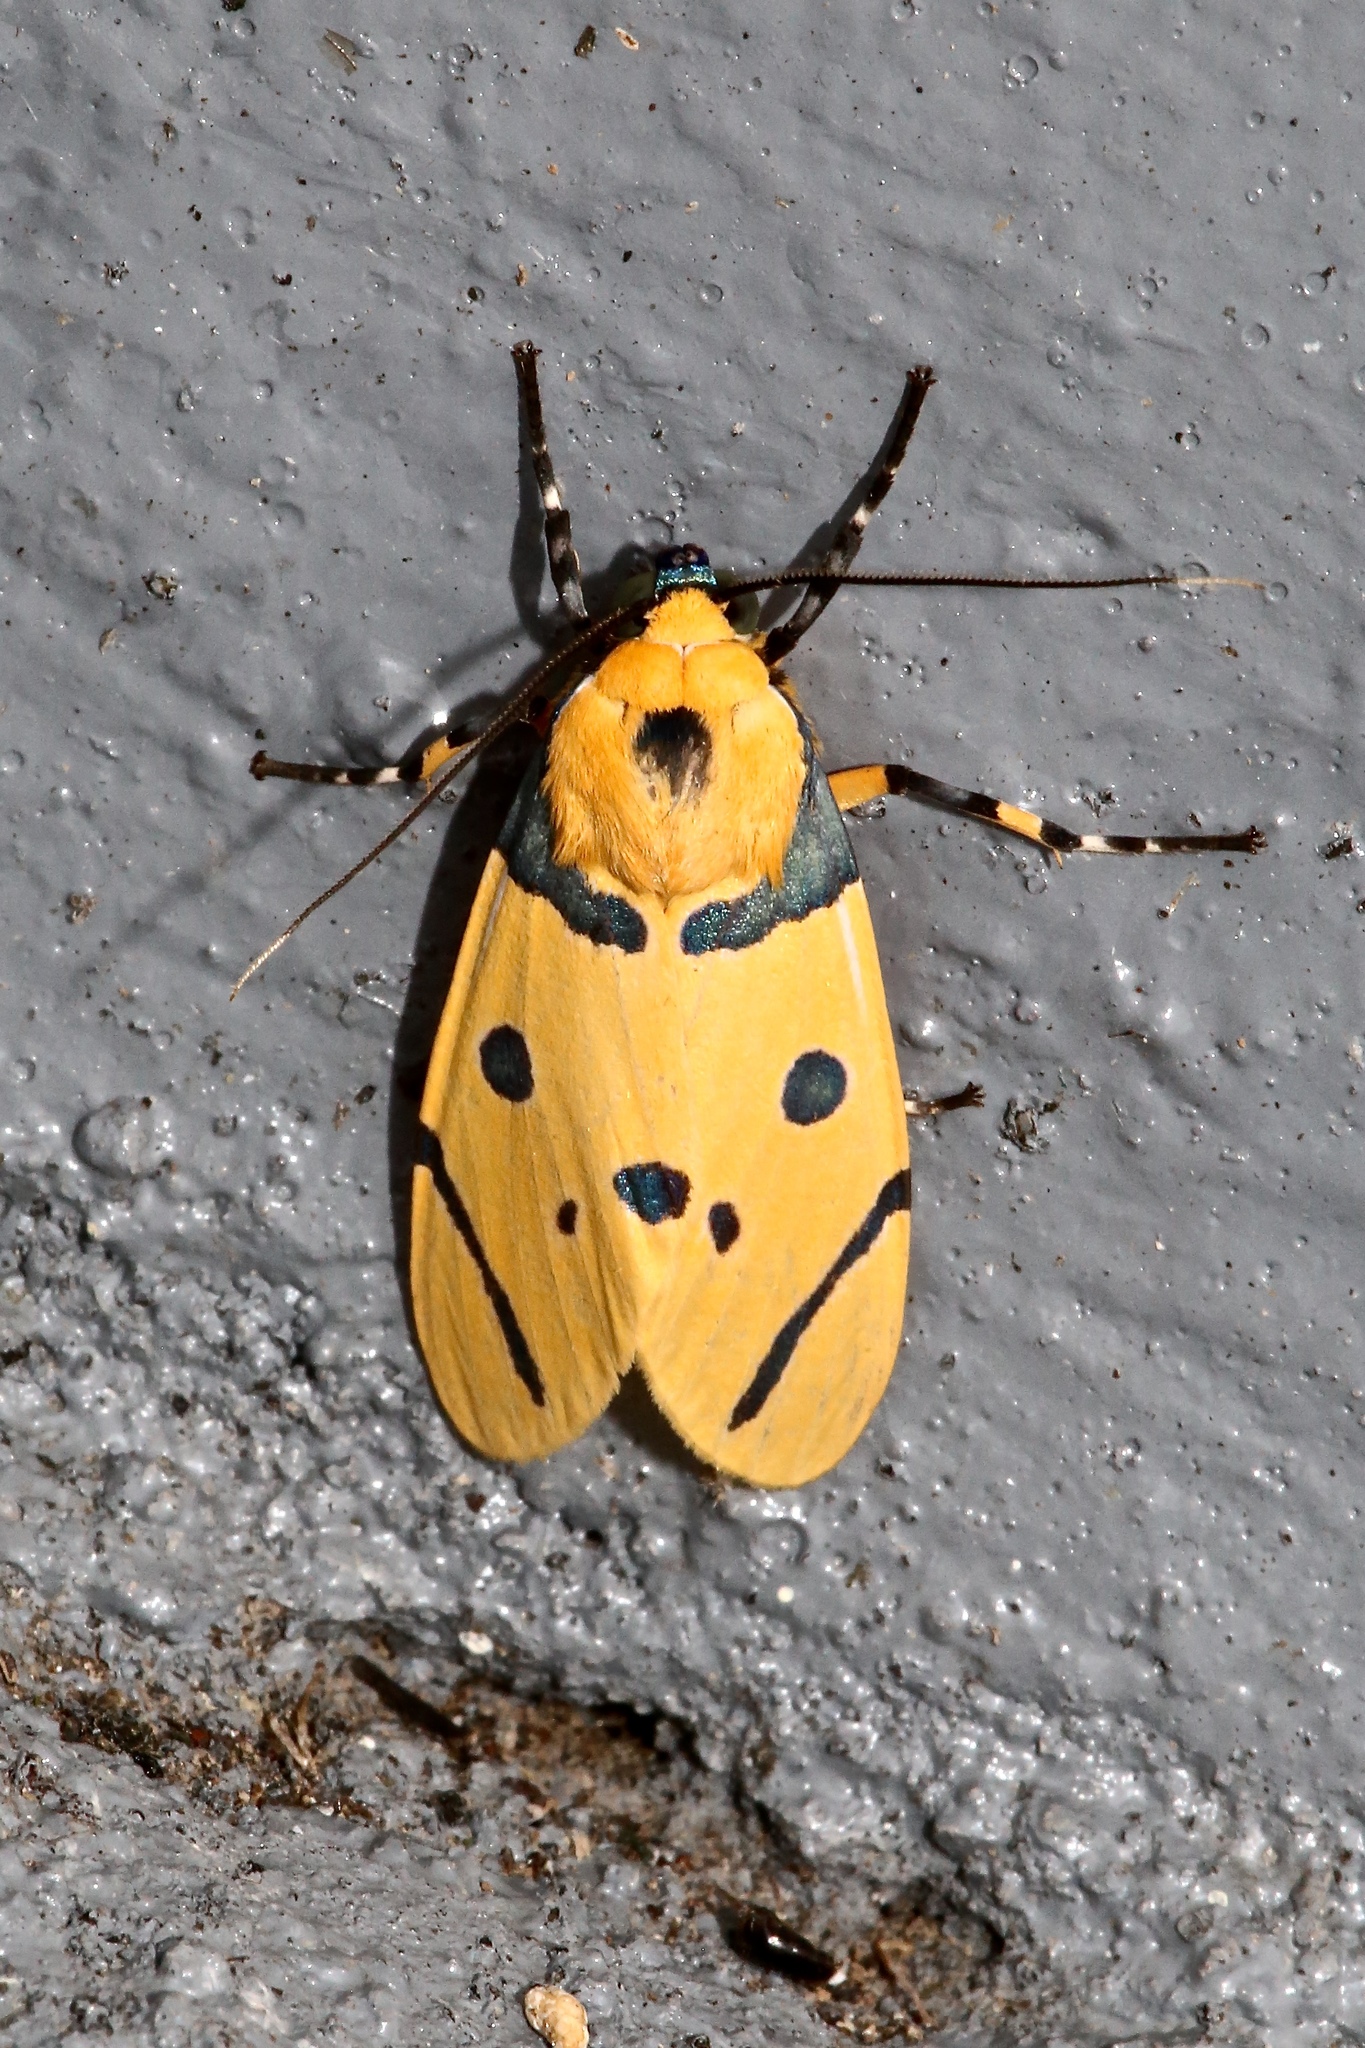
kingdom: Animalia
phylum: Arthropoda
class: Insecta
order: Lepidoptera
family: Erebidae
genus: Emurena
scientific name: Emurena tripunctata
